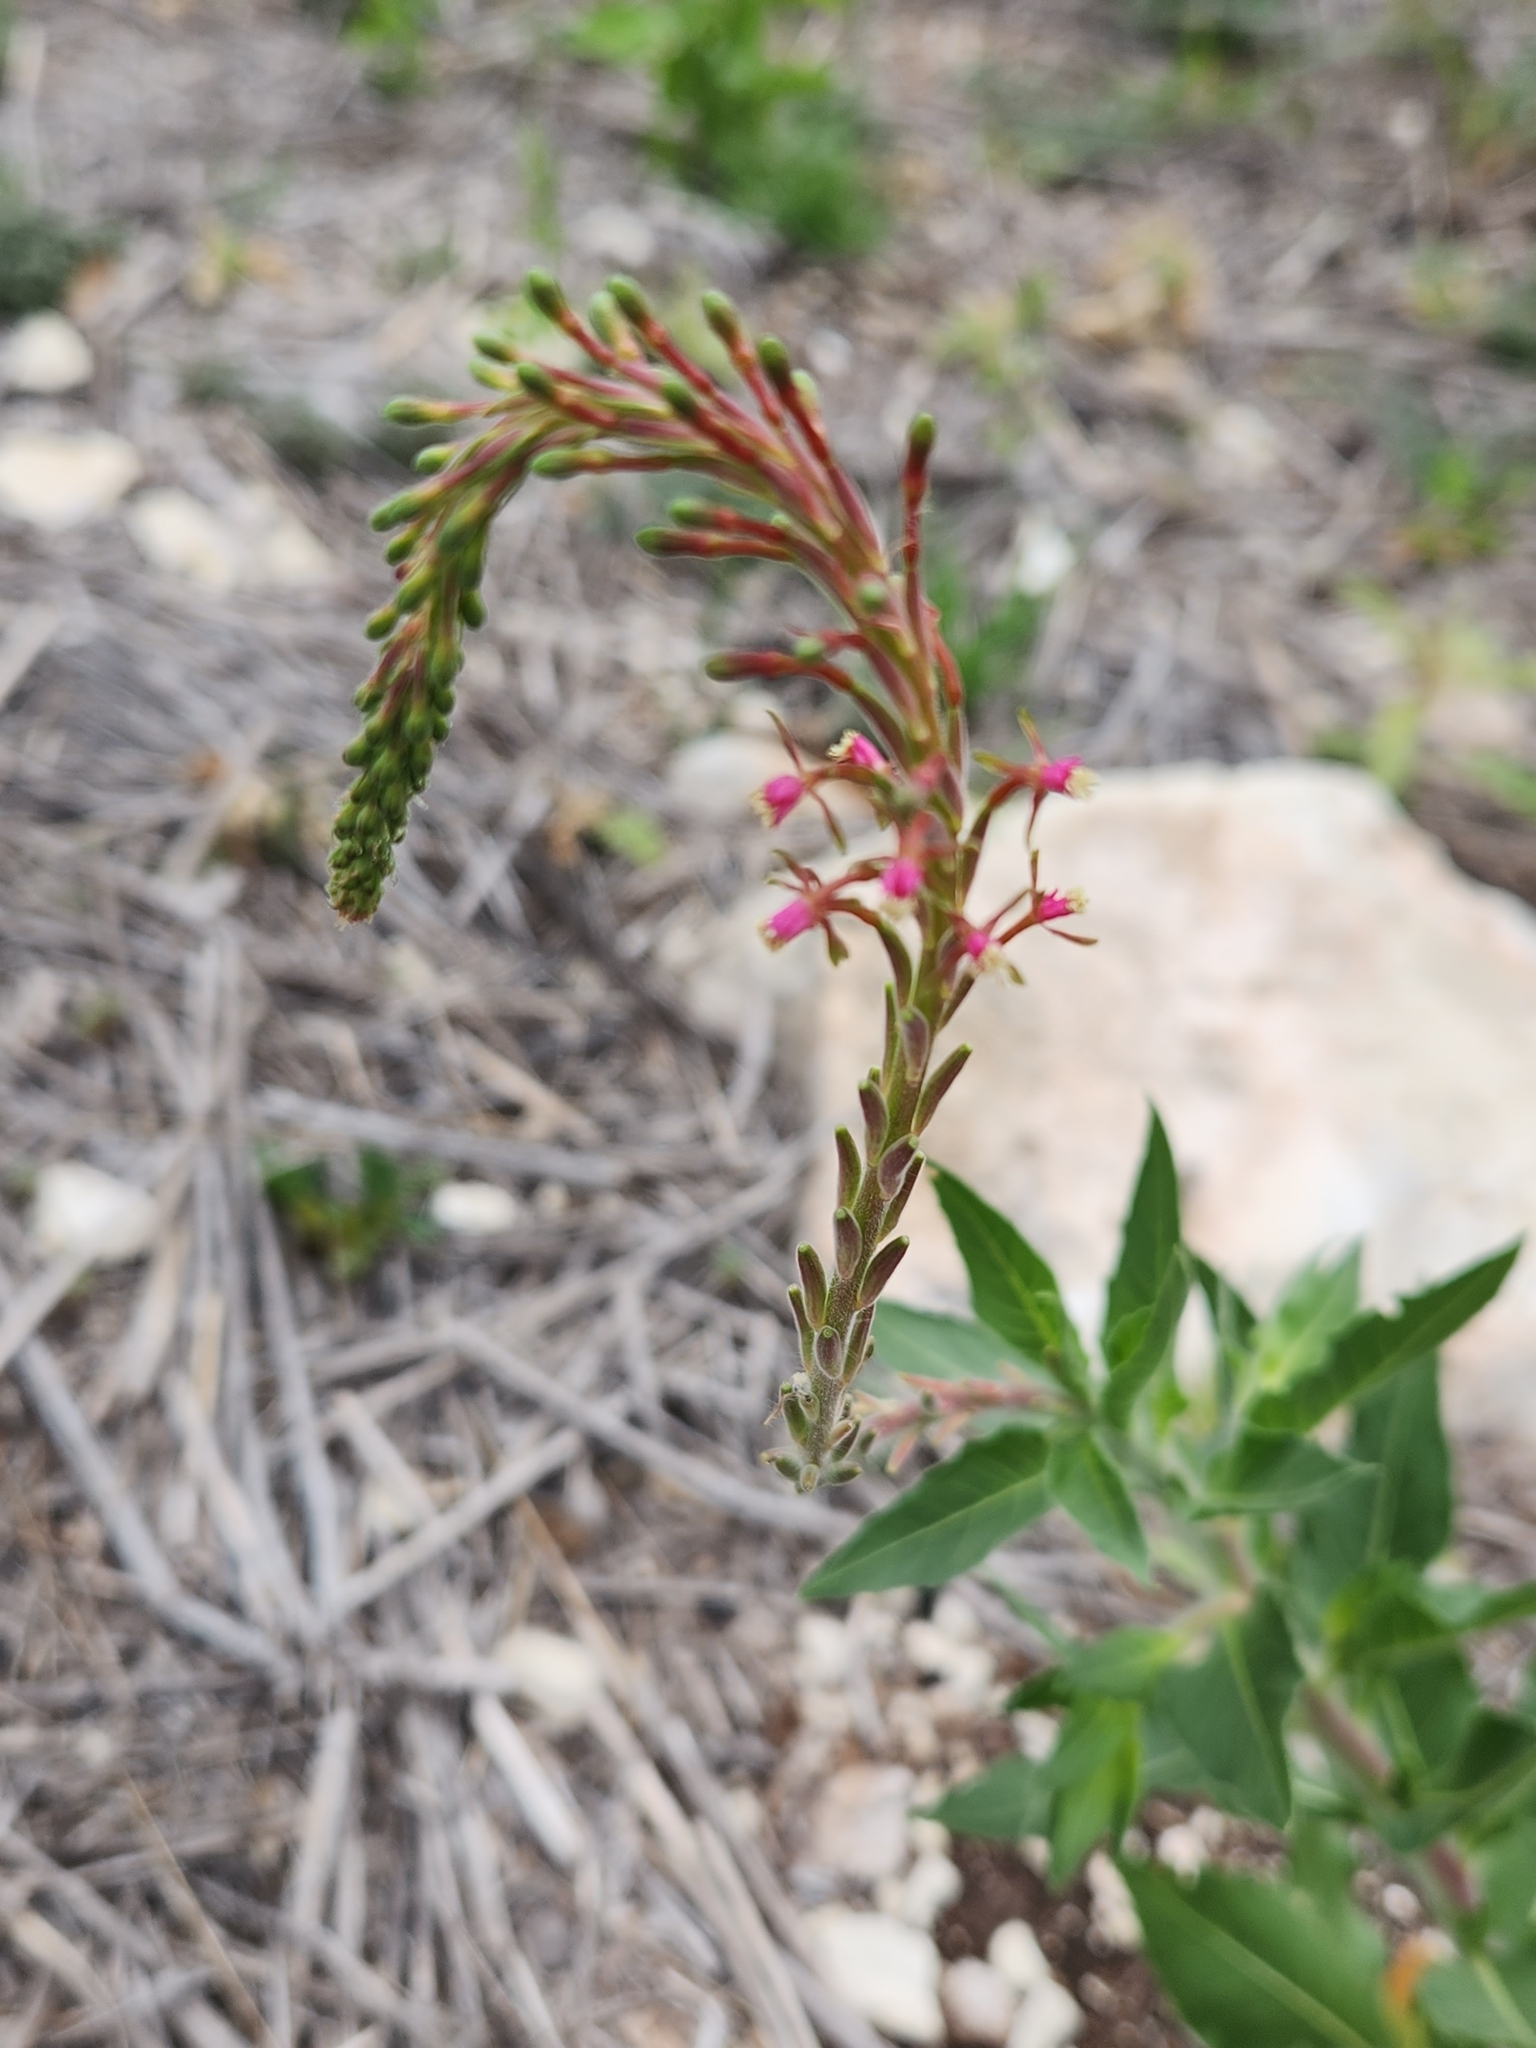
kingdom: Plantae
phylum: Tracheophyta
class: Magnoliopsida
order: Myrtales
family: Onagraceae
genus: Oenothera
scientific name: Oenothera curtiflora
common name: Velvetweed
